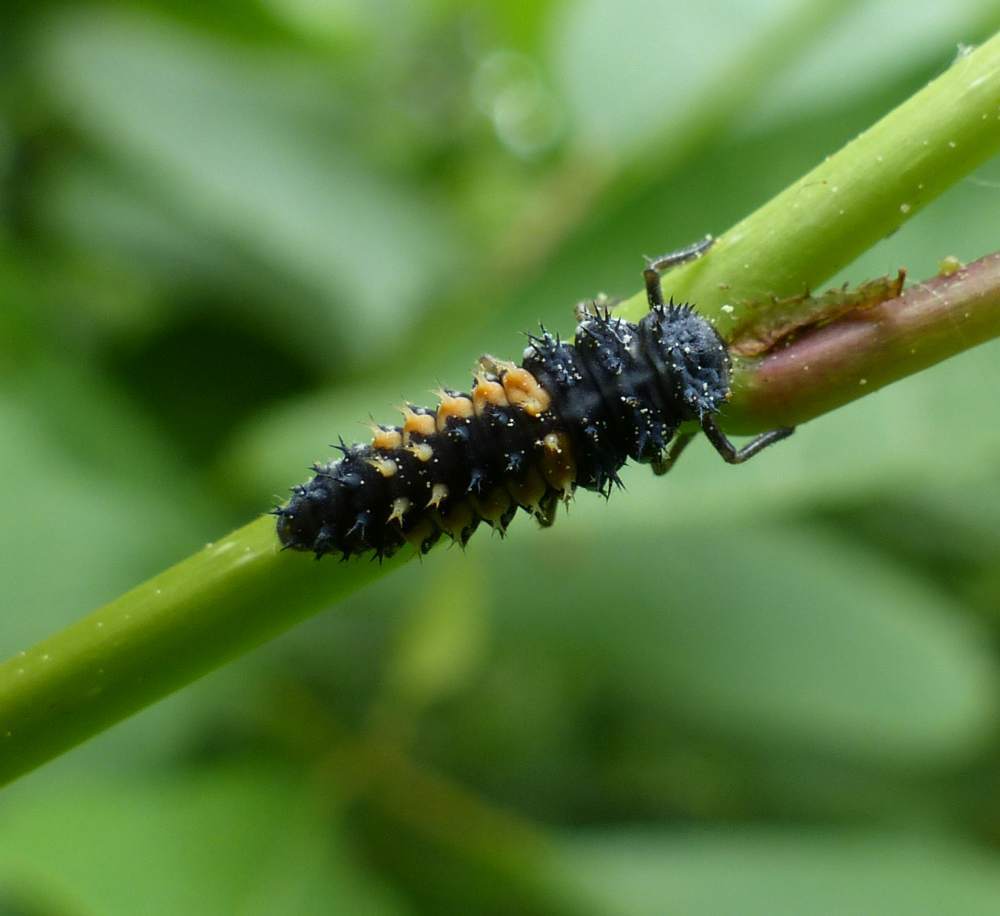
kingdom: Animalia
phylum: Arthropoda
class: Insecta
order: Coleoptera
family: Coccinellidae
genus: Harmonia
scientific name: Harmonia axyridis
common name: Harlequin ladybird
